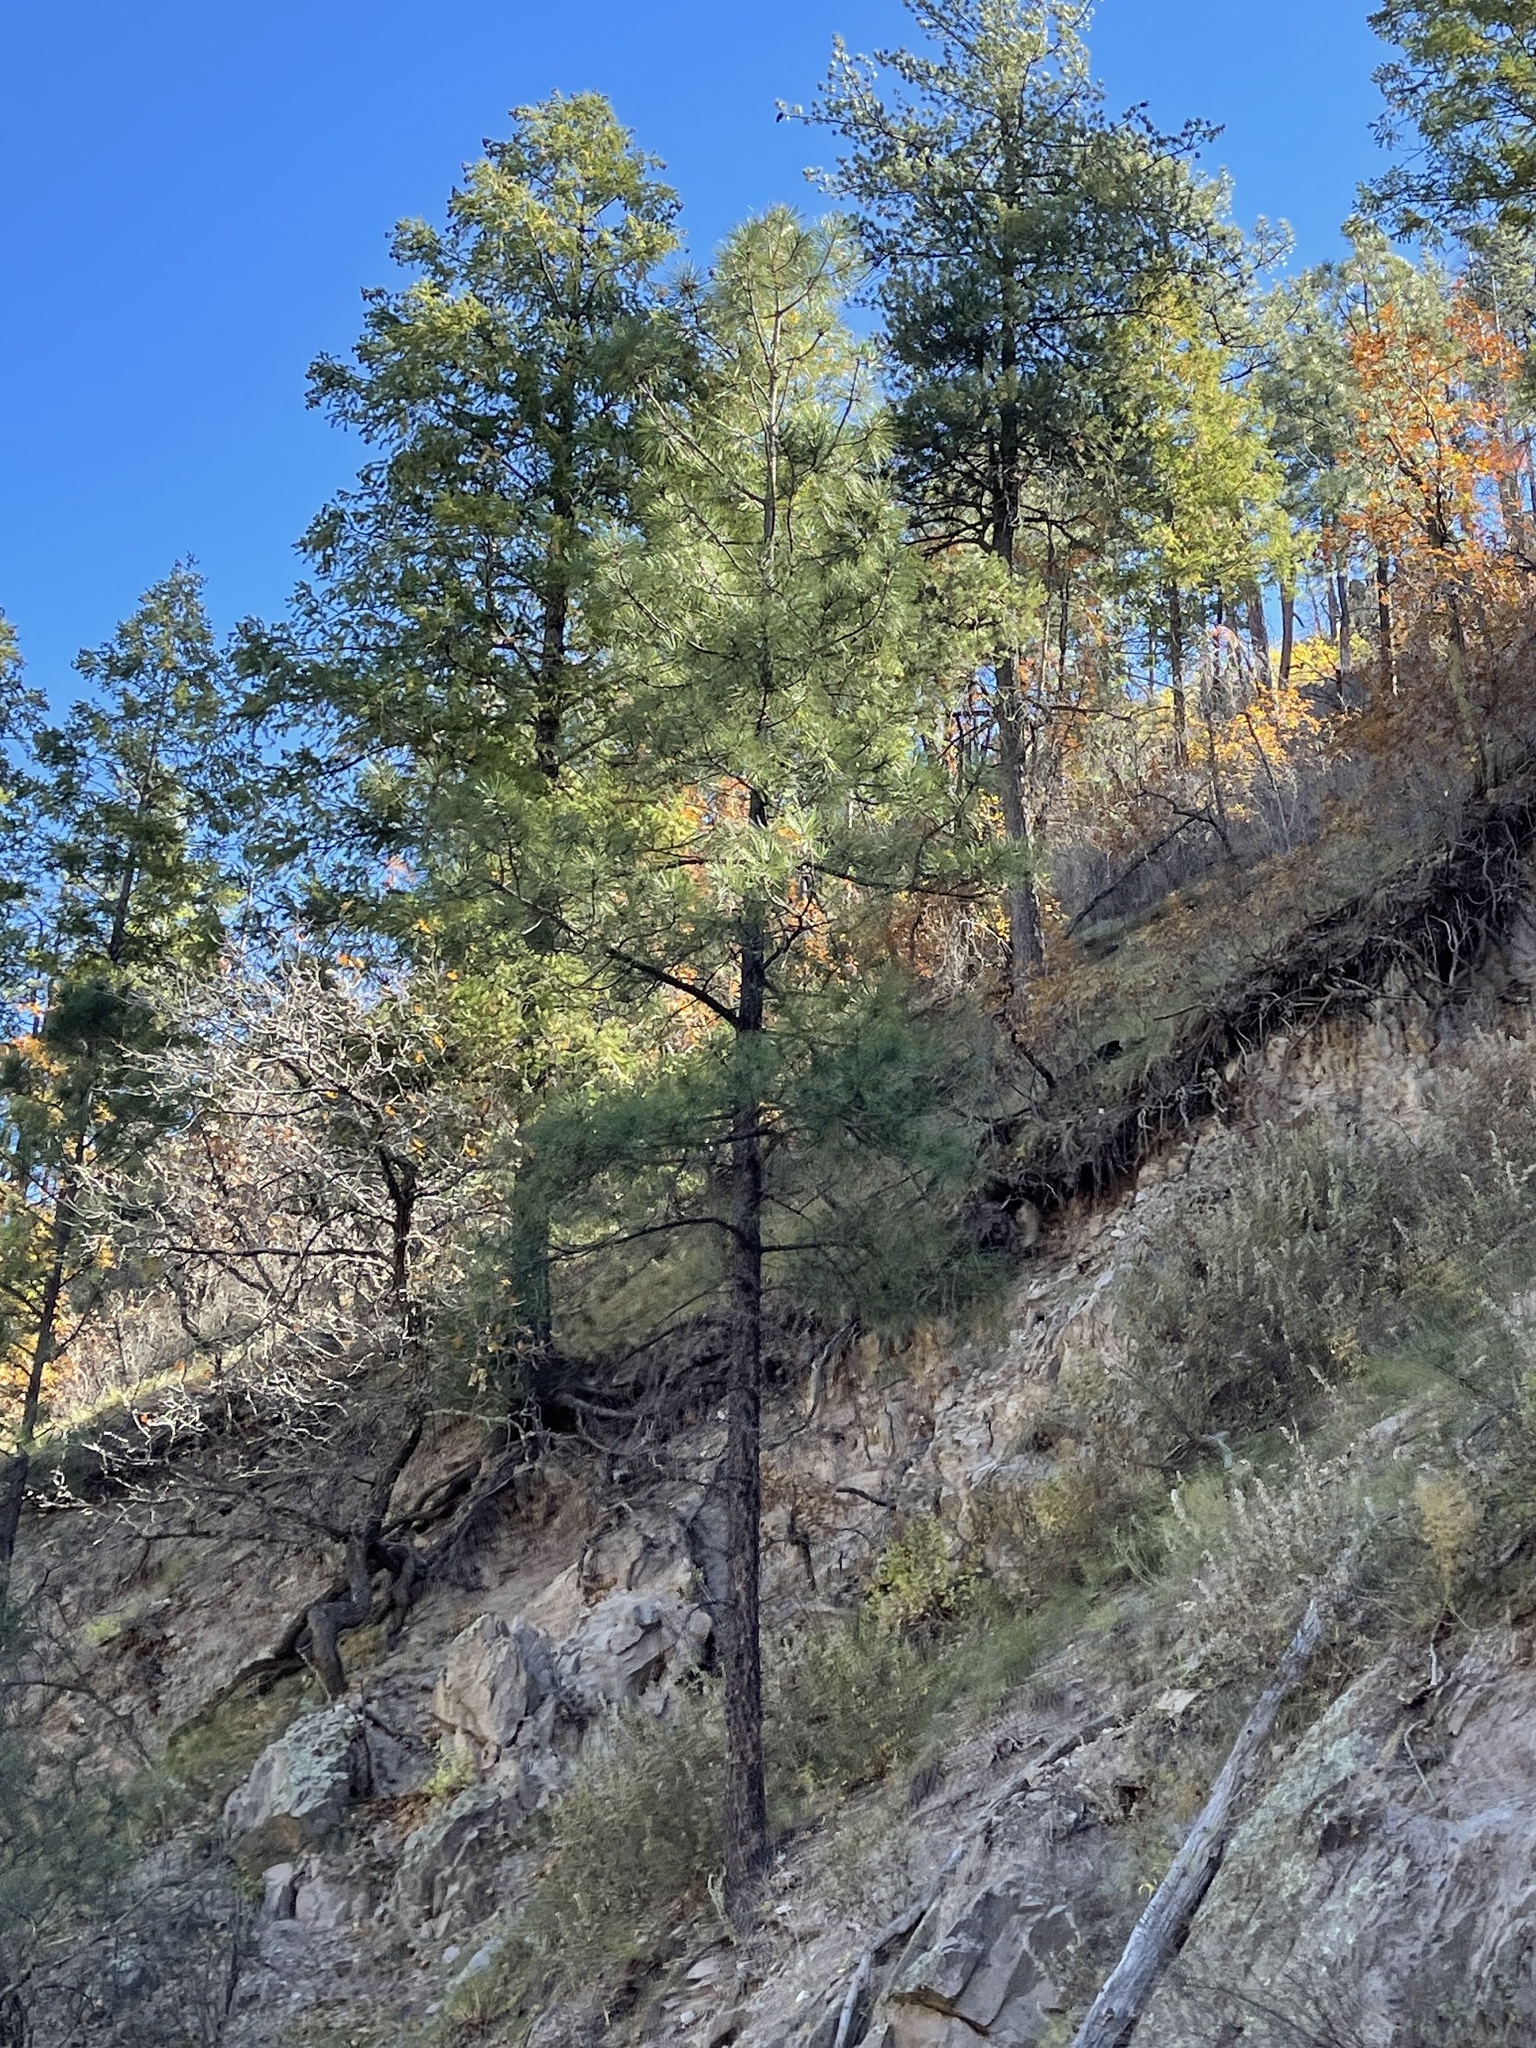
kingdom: Plantae
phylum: Tracheophyta
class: Pinopsida
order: Pinales
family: Pinaceae
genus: Pinus
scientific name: Pinus ponderosa
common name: Western yellow-pine
